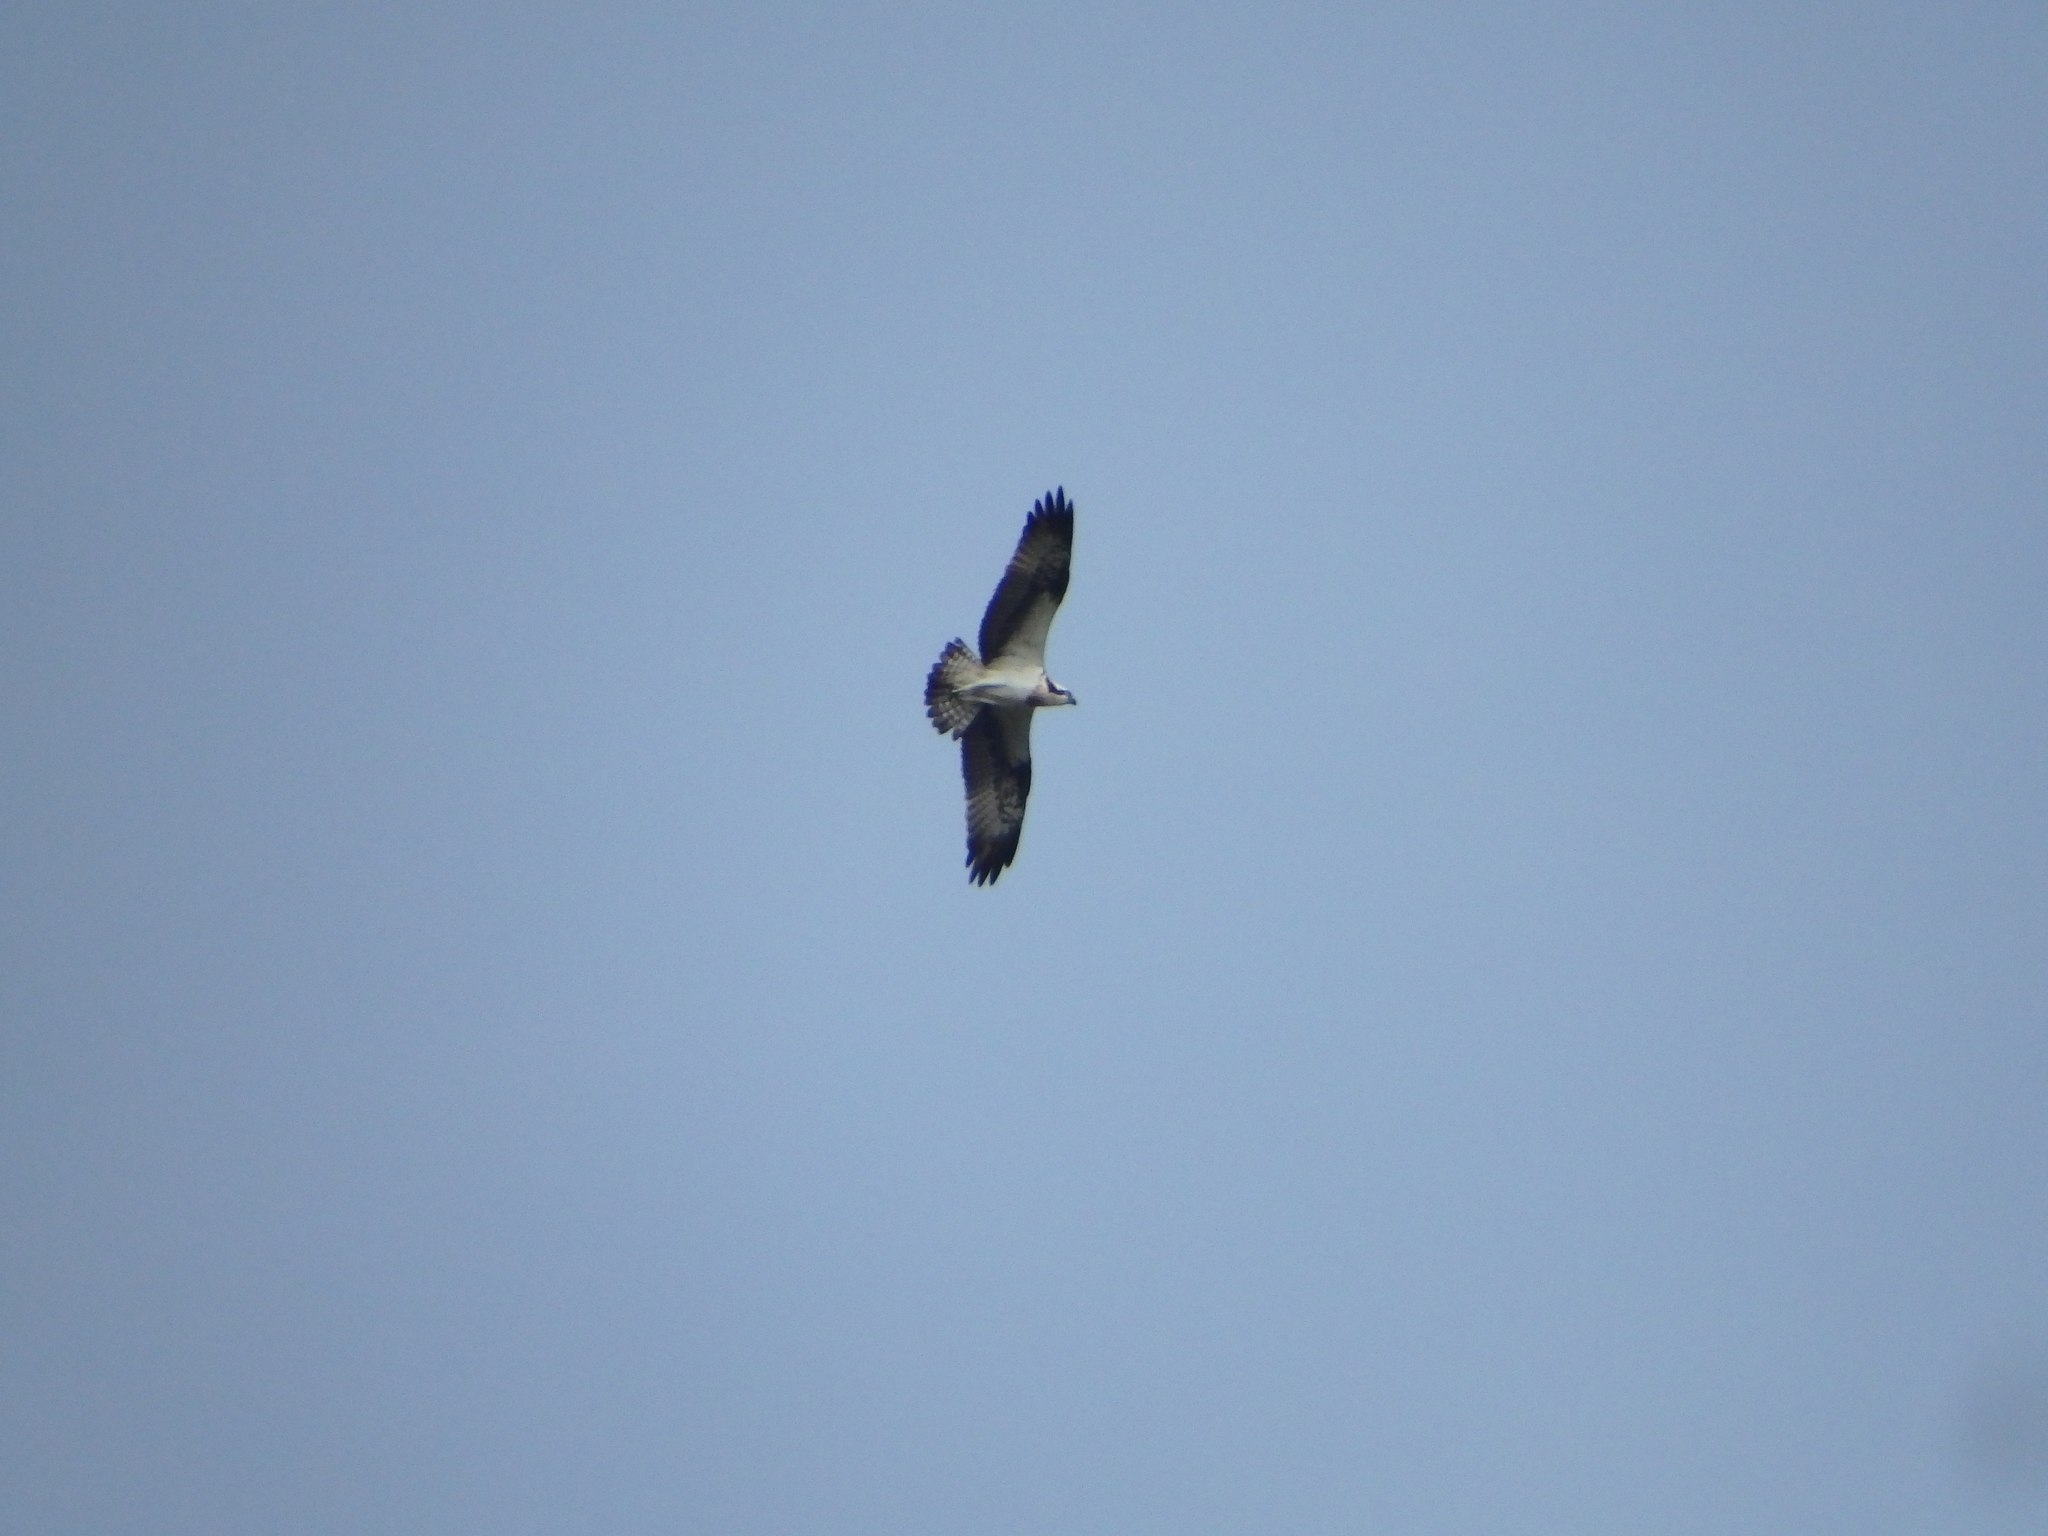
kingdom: Animalia
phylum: Chordata
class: Aves
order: Accipitriformes
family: Pandionidae
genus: Pandion
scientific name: Pandion haliaetus
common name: Osprey
